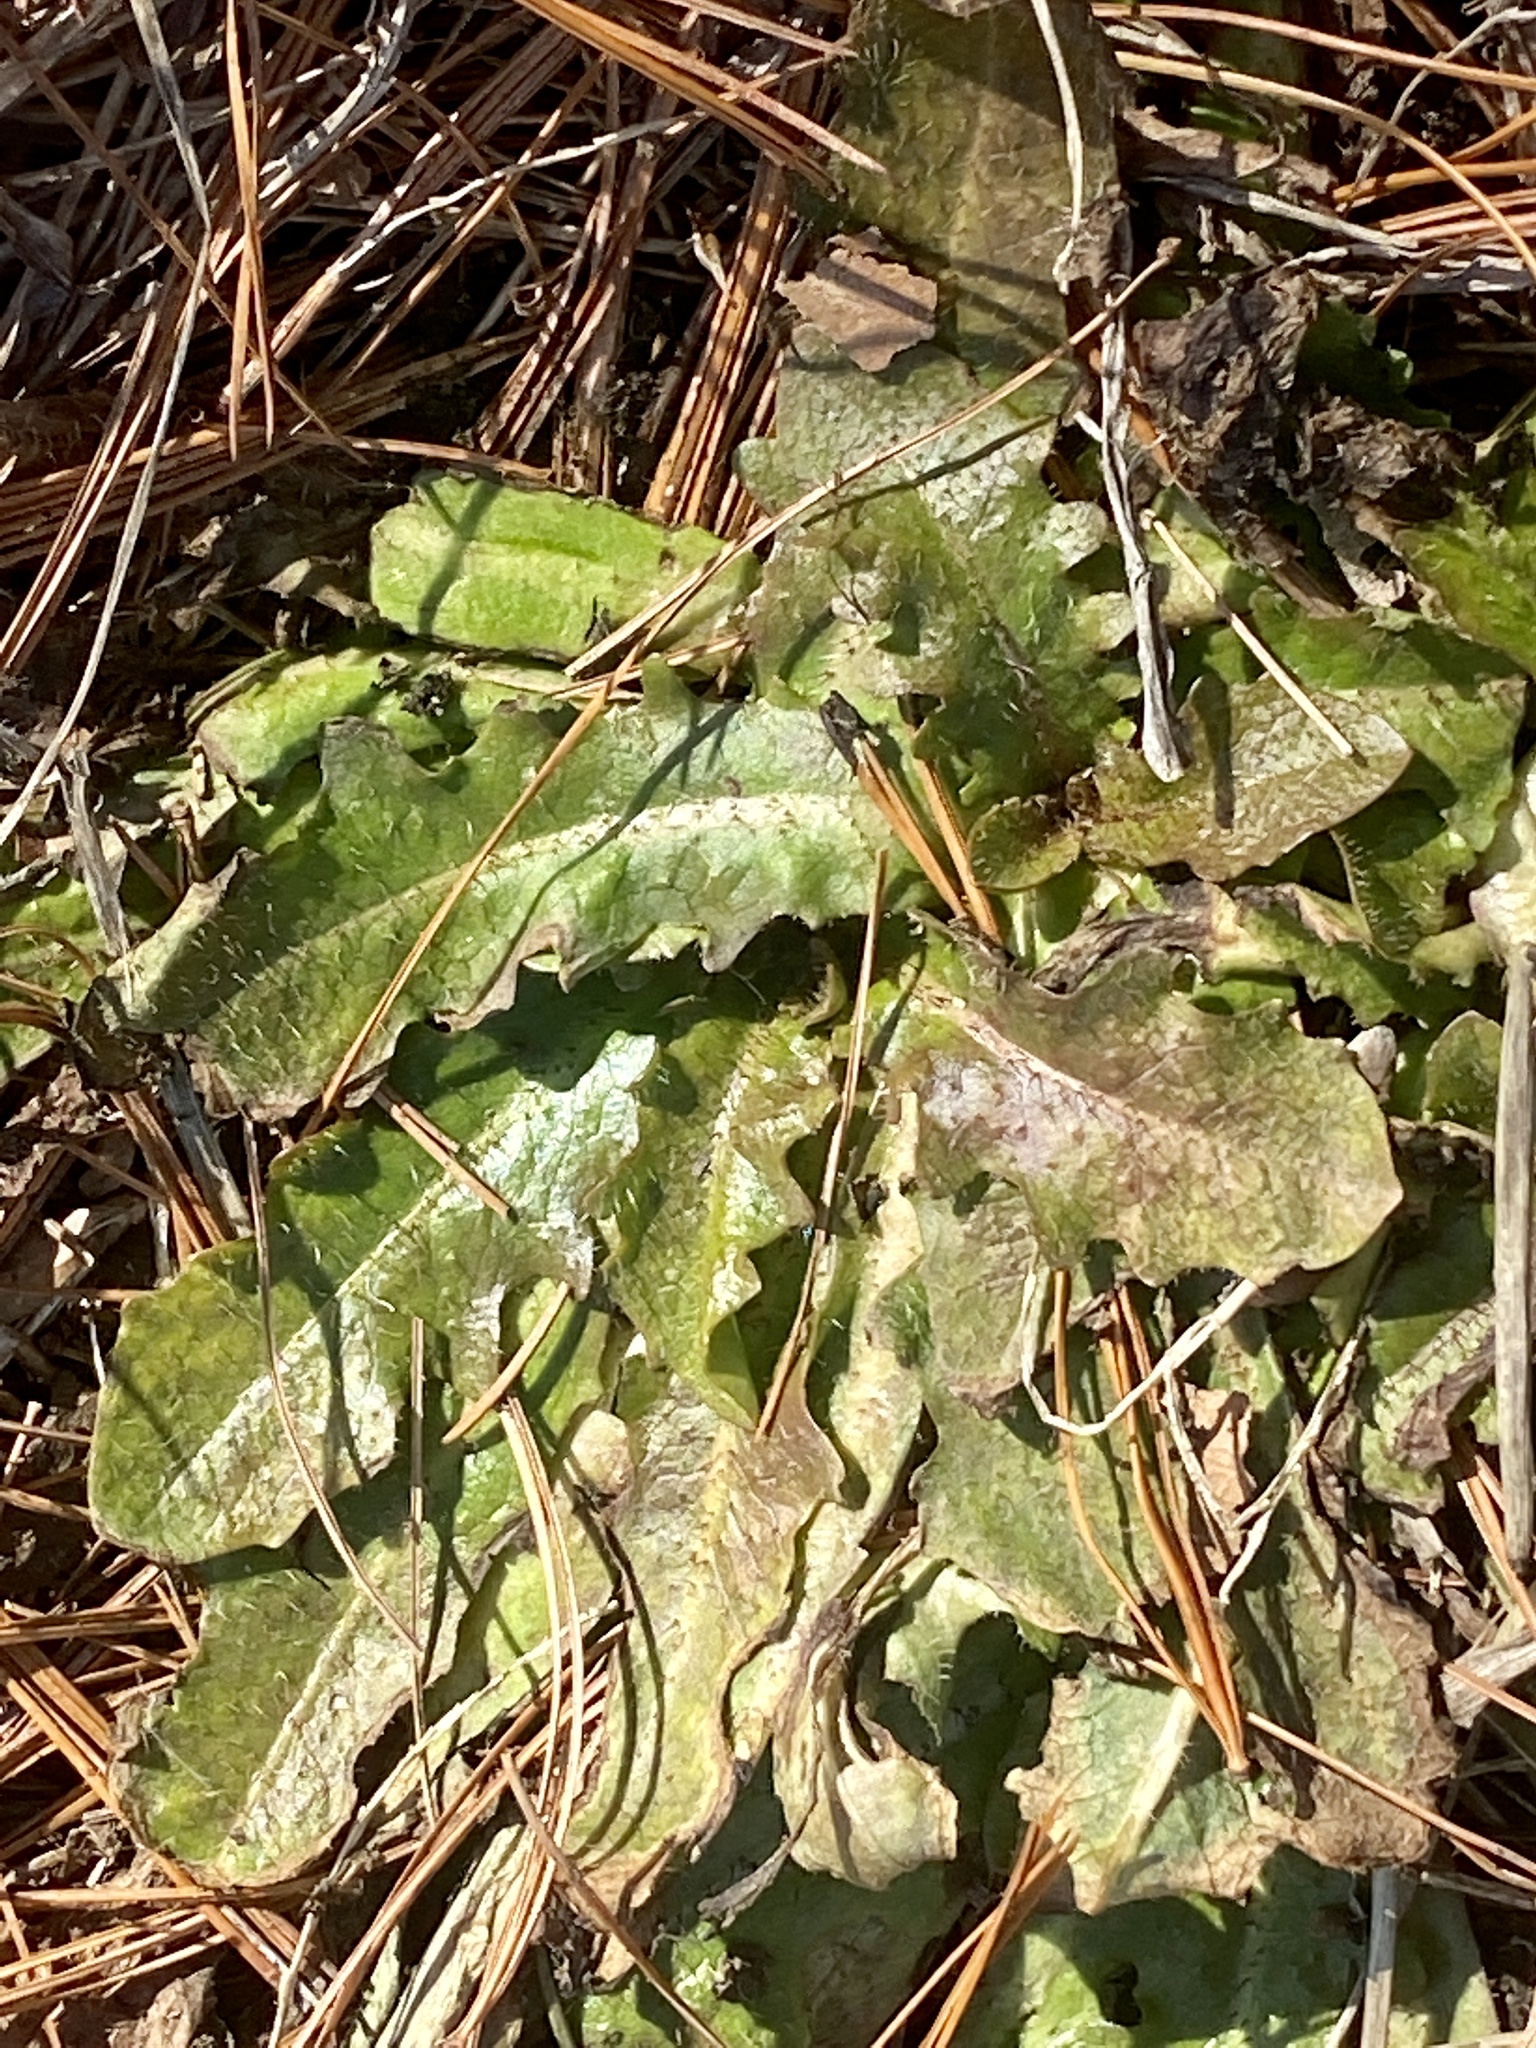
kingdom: Plantae
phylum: Tracheophyta
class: Magnoliopsida
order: Asterales
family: Asteraceae
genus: Hypochaeris
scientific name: Hypochaeris radicata
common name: Flatweed
